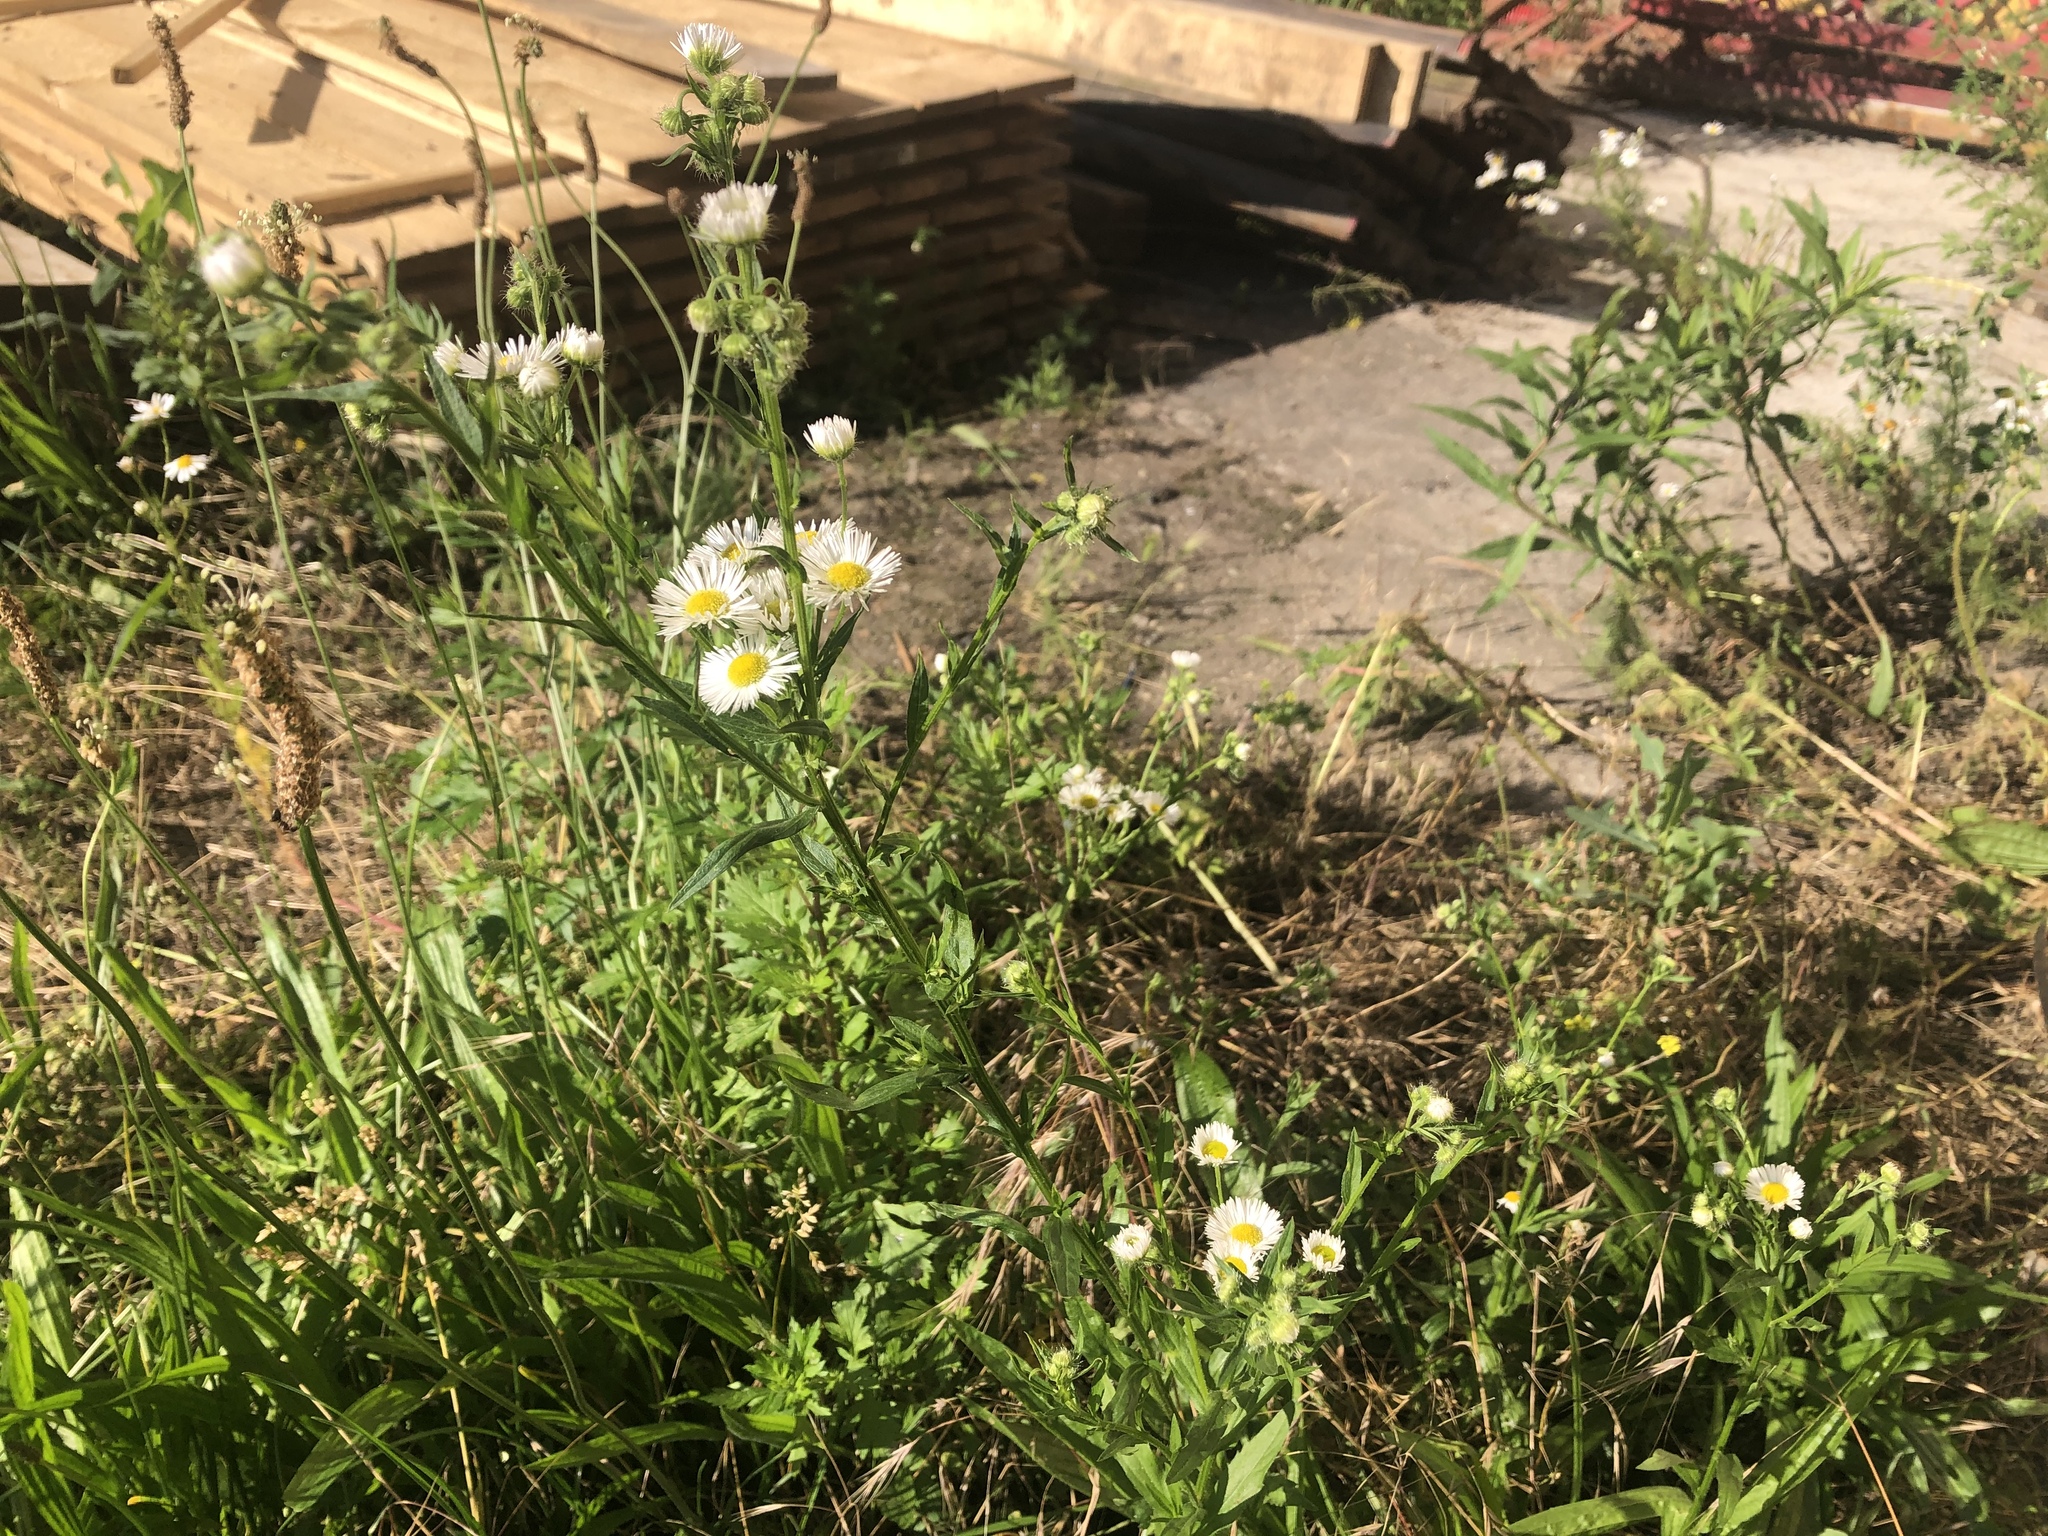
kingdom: Plantae
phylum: Tracheophyta
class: Magnoliopsida
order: Asterales
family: Asteraceae
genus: Erigeron
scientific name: Erigeron annuus
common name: Tall fleabane
